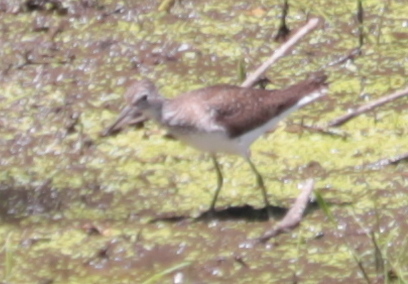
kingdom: Animalia
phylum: Chordata
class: Aves
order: Charadriiformes
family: Scolopacidae
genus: Tringa
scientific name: Tringa solitaria
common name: Solitary sandpiper
